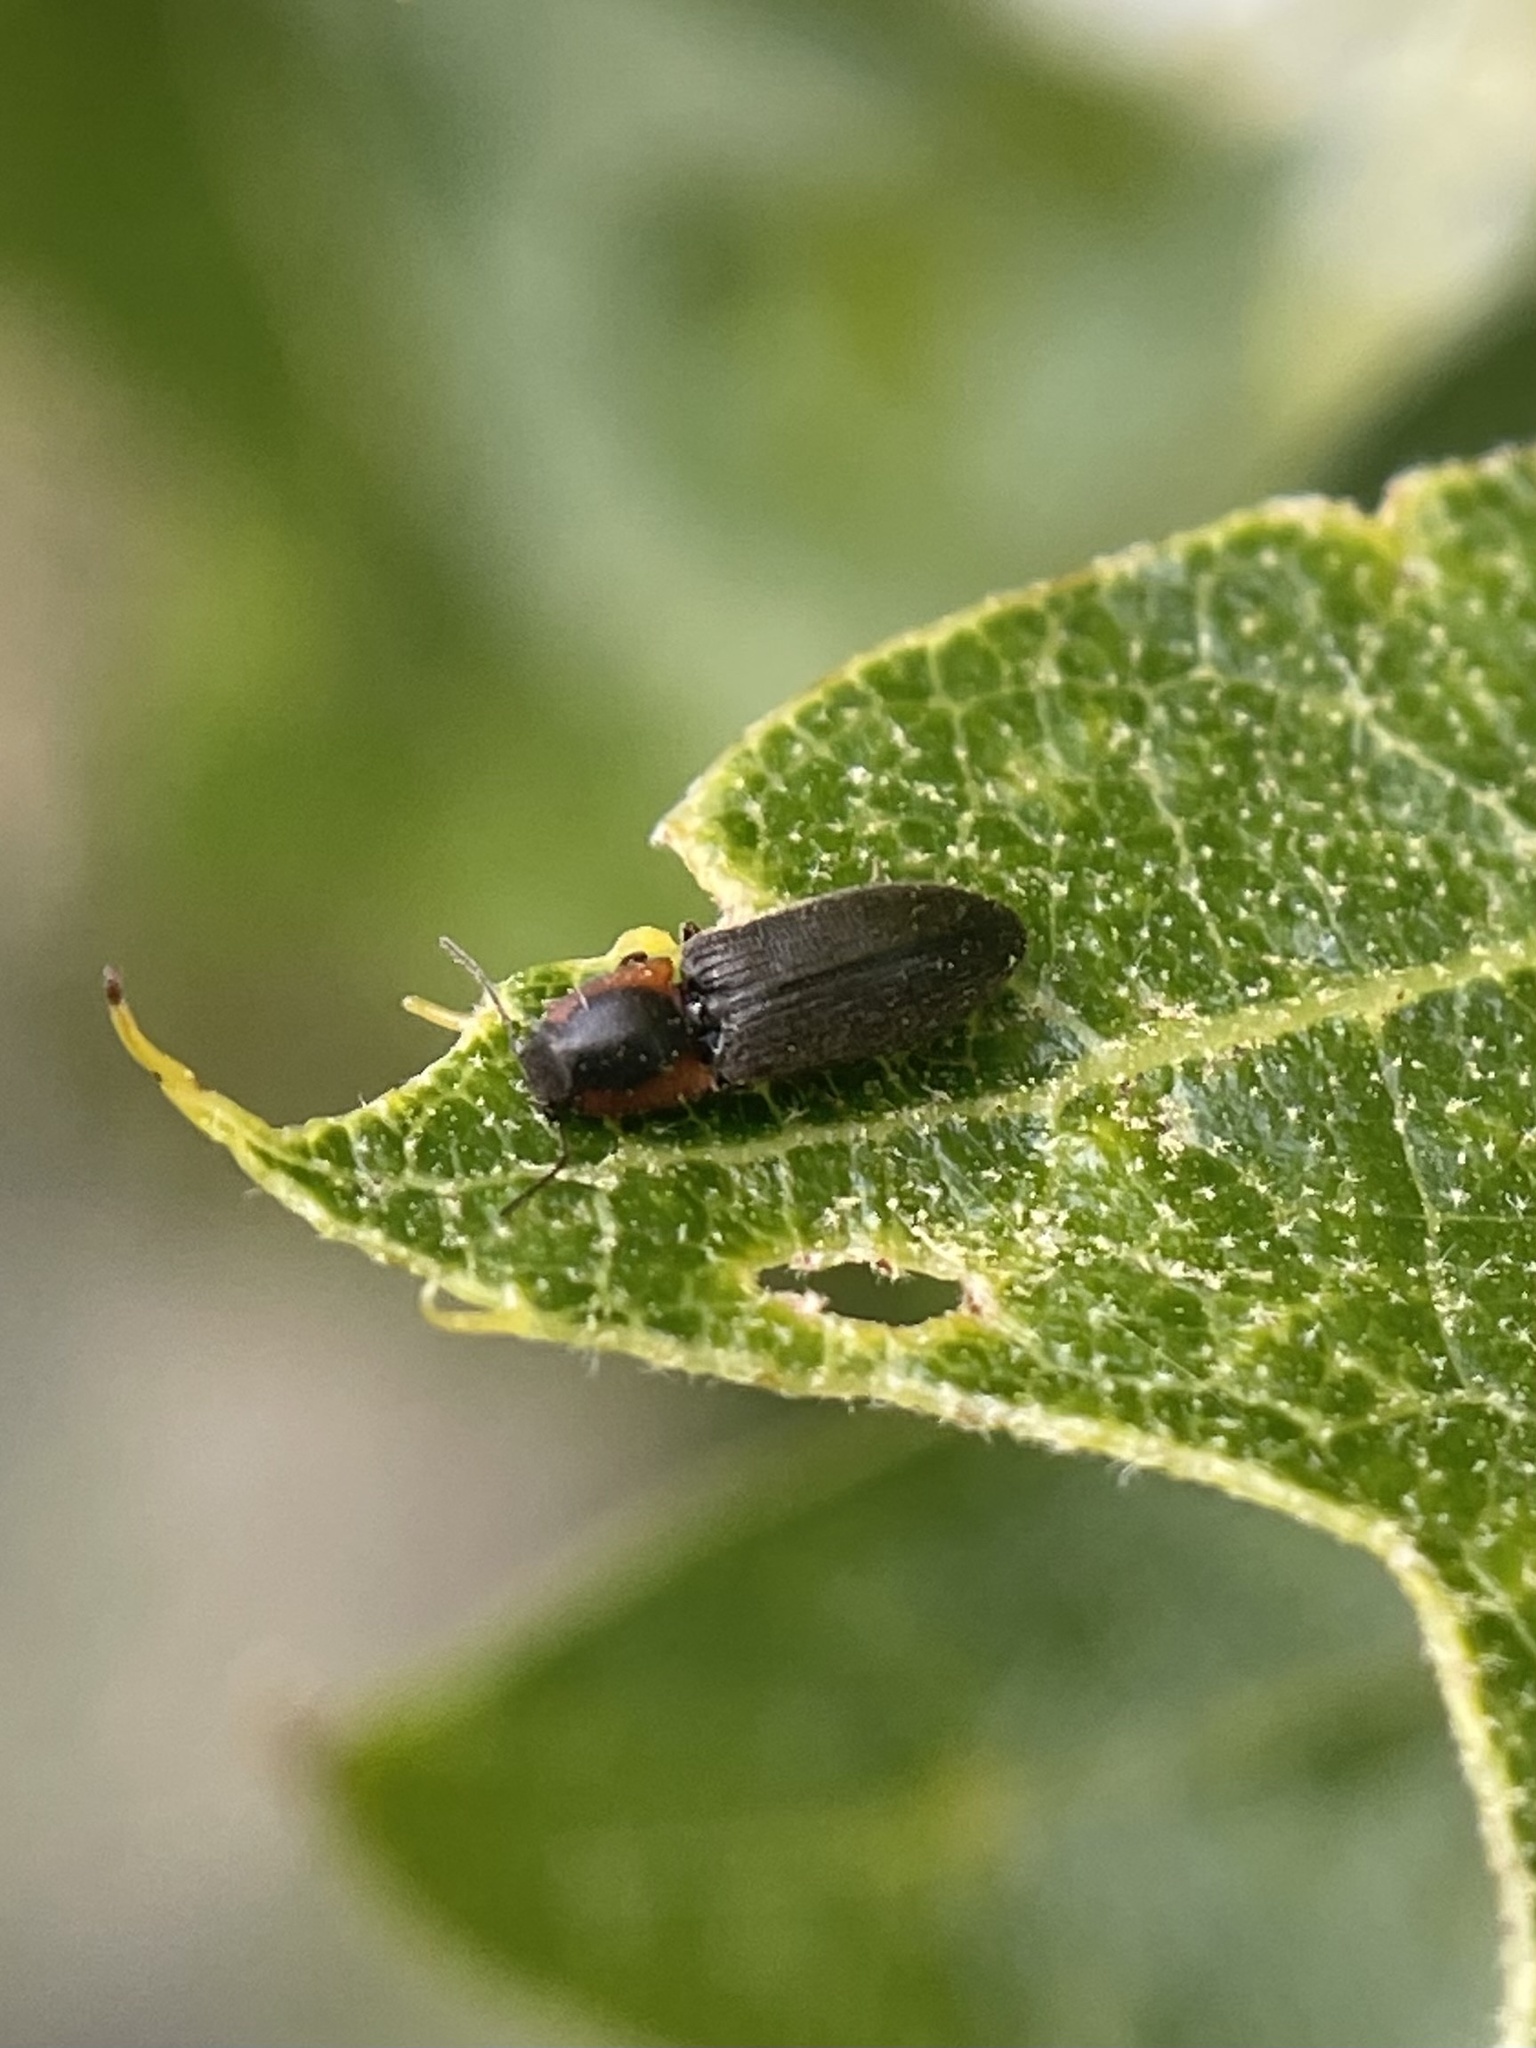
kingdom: Animalia
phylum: Arthropoda
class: Insecta
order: Coleoptera
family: Elateridae
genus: Tetralimonius
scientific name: Tetralimonius
